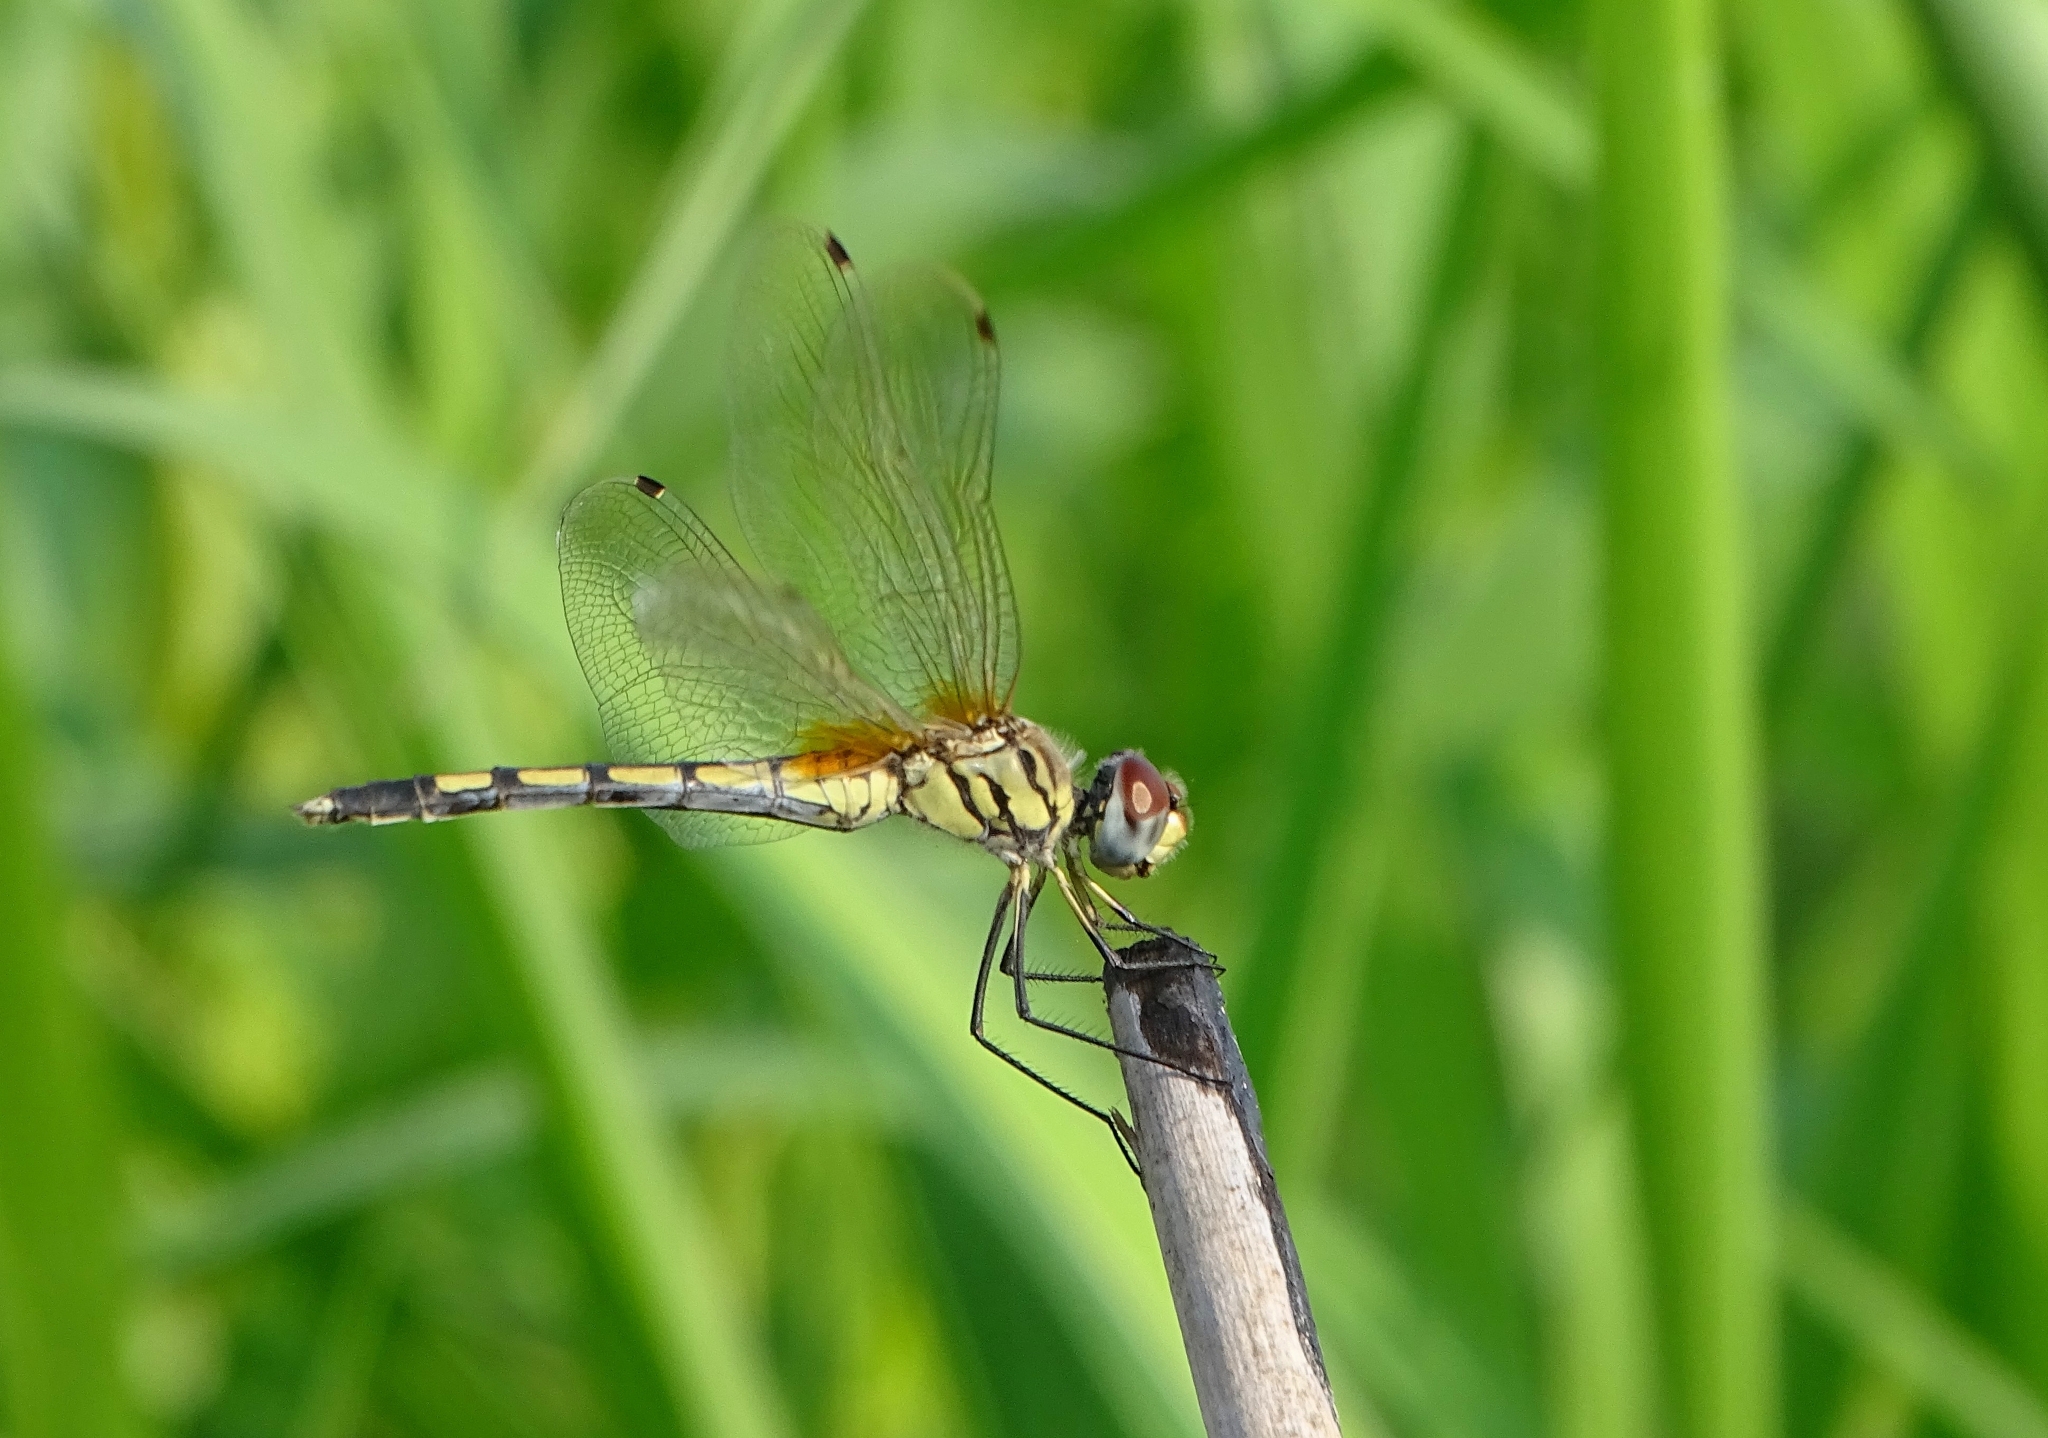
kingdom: Animalia
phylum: Arthropoda
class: Insecta
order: Odonata
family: Libellulidae
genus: Trithemis
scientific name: Trithemis pallidinervis
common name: Dancing dropwing
